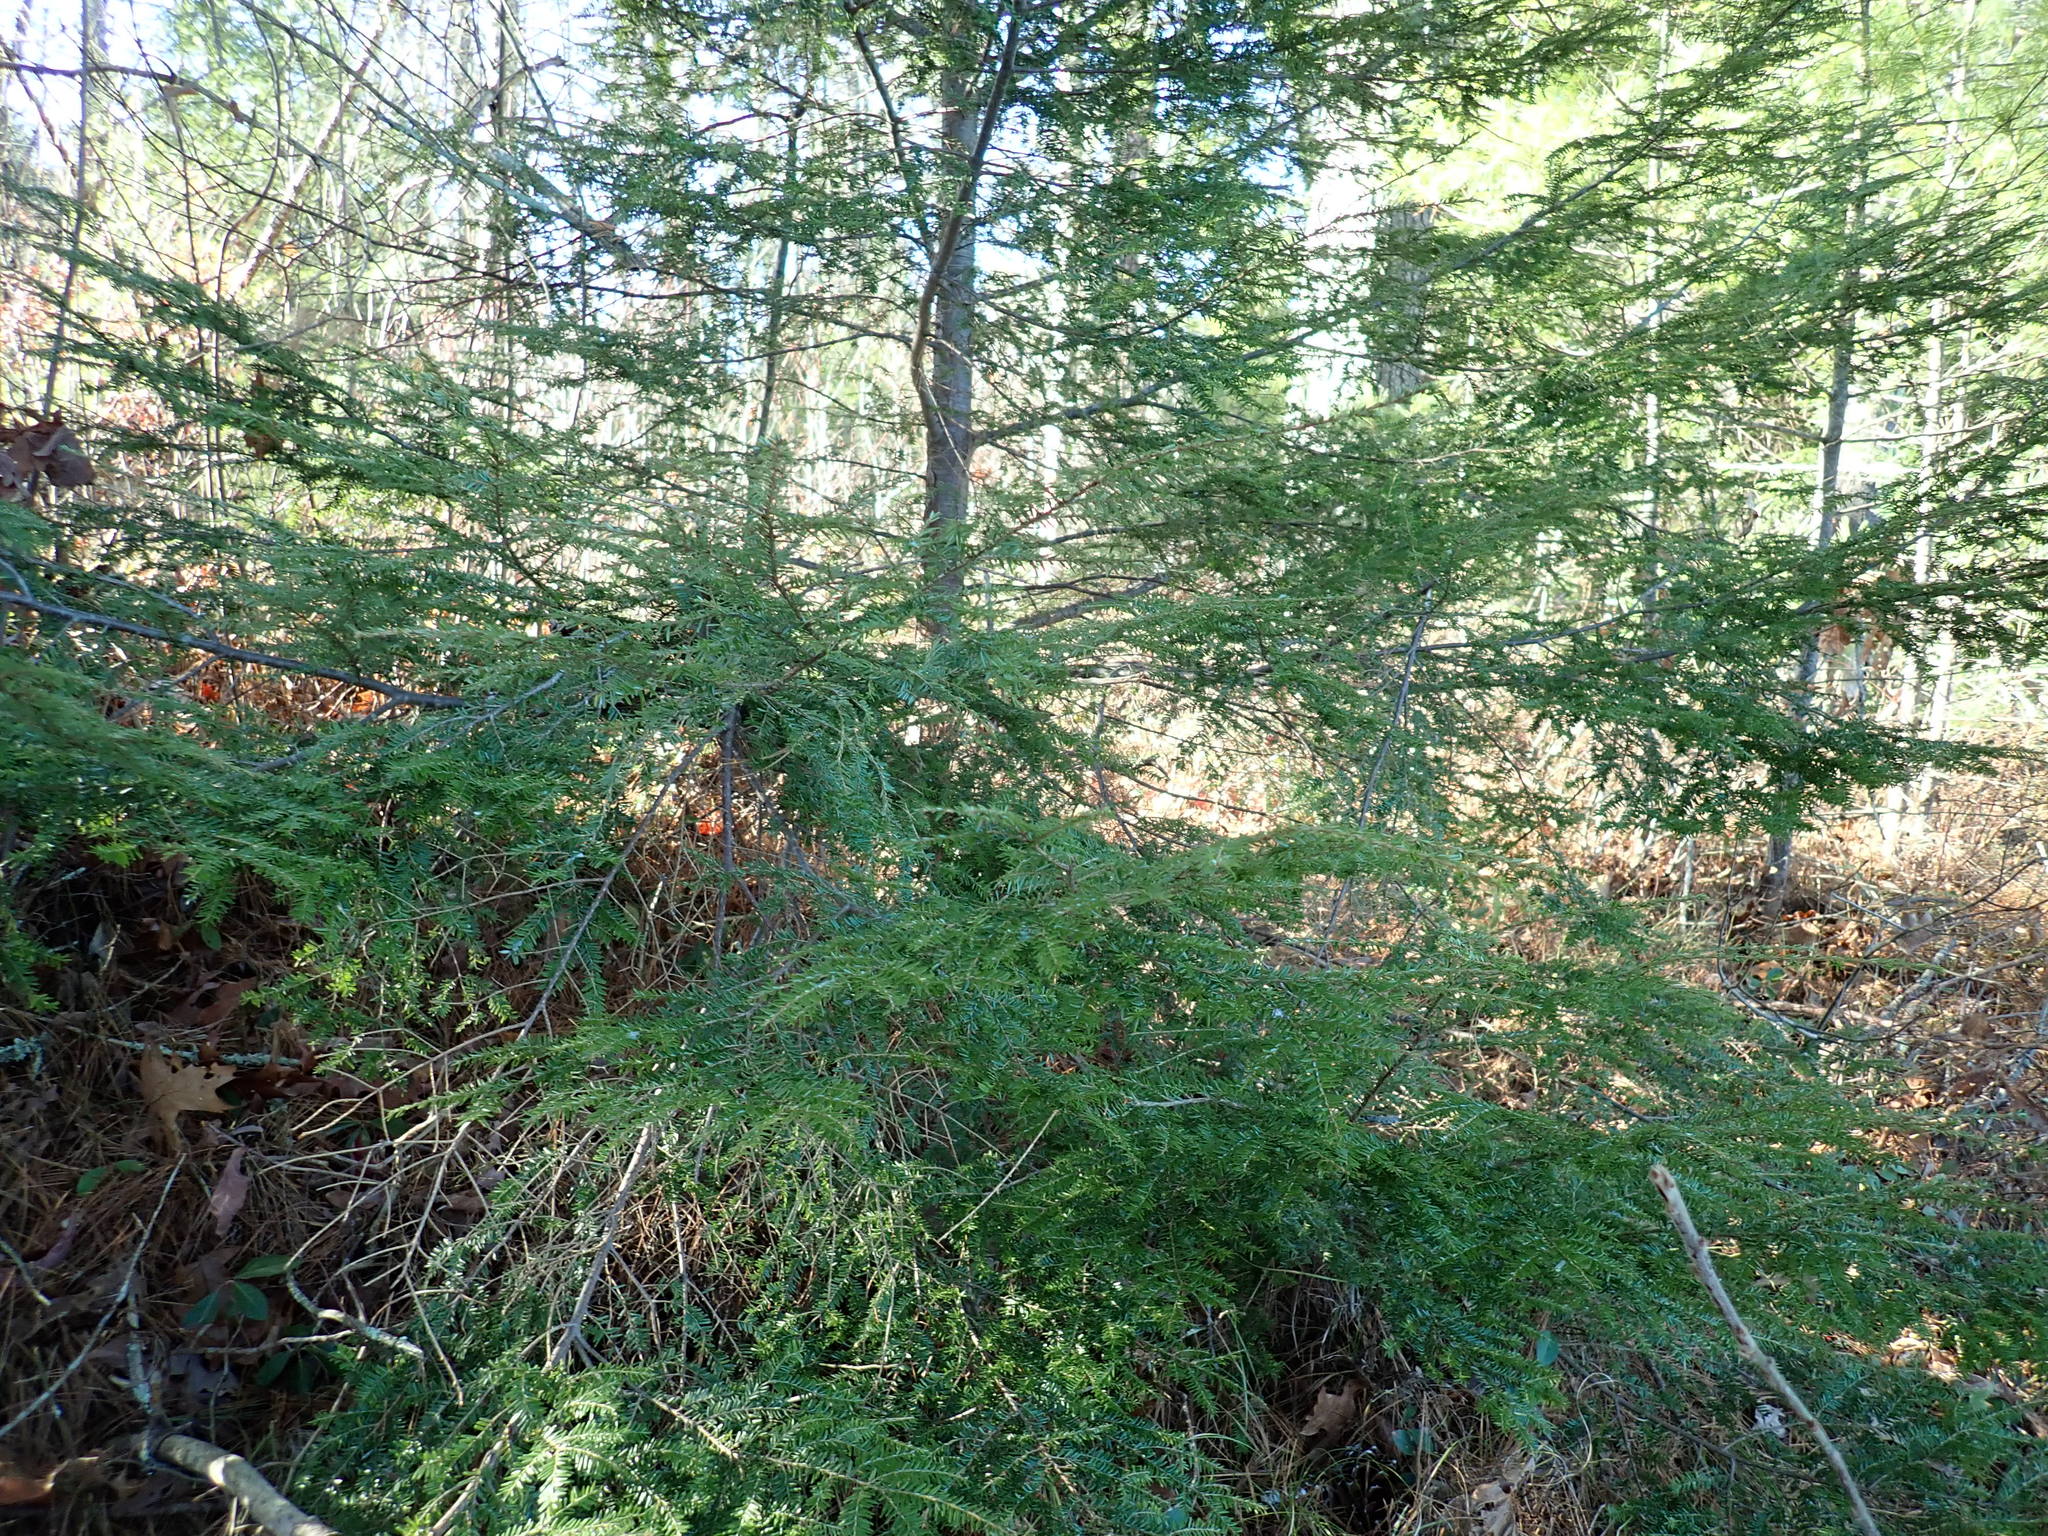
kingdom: Plantae
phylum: Tracheophyta
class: Pinopsida
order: Pinales
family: Pinaceae
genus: Tsuga
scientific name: Tsuga canadensis
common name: Eastern hemlock
